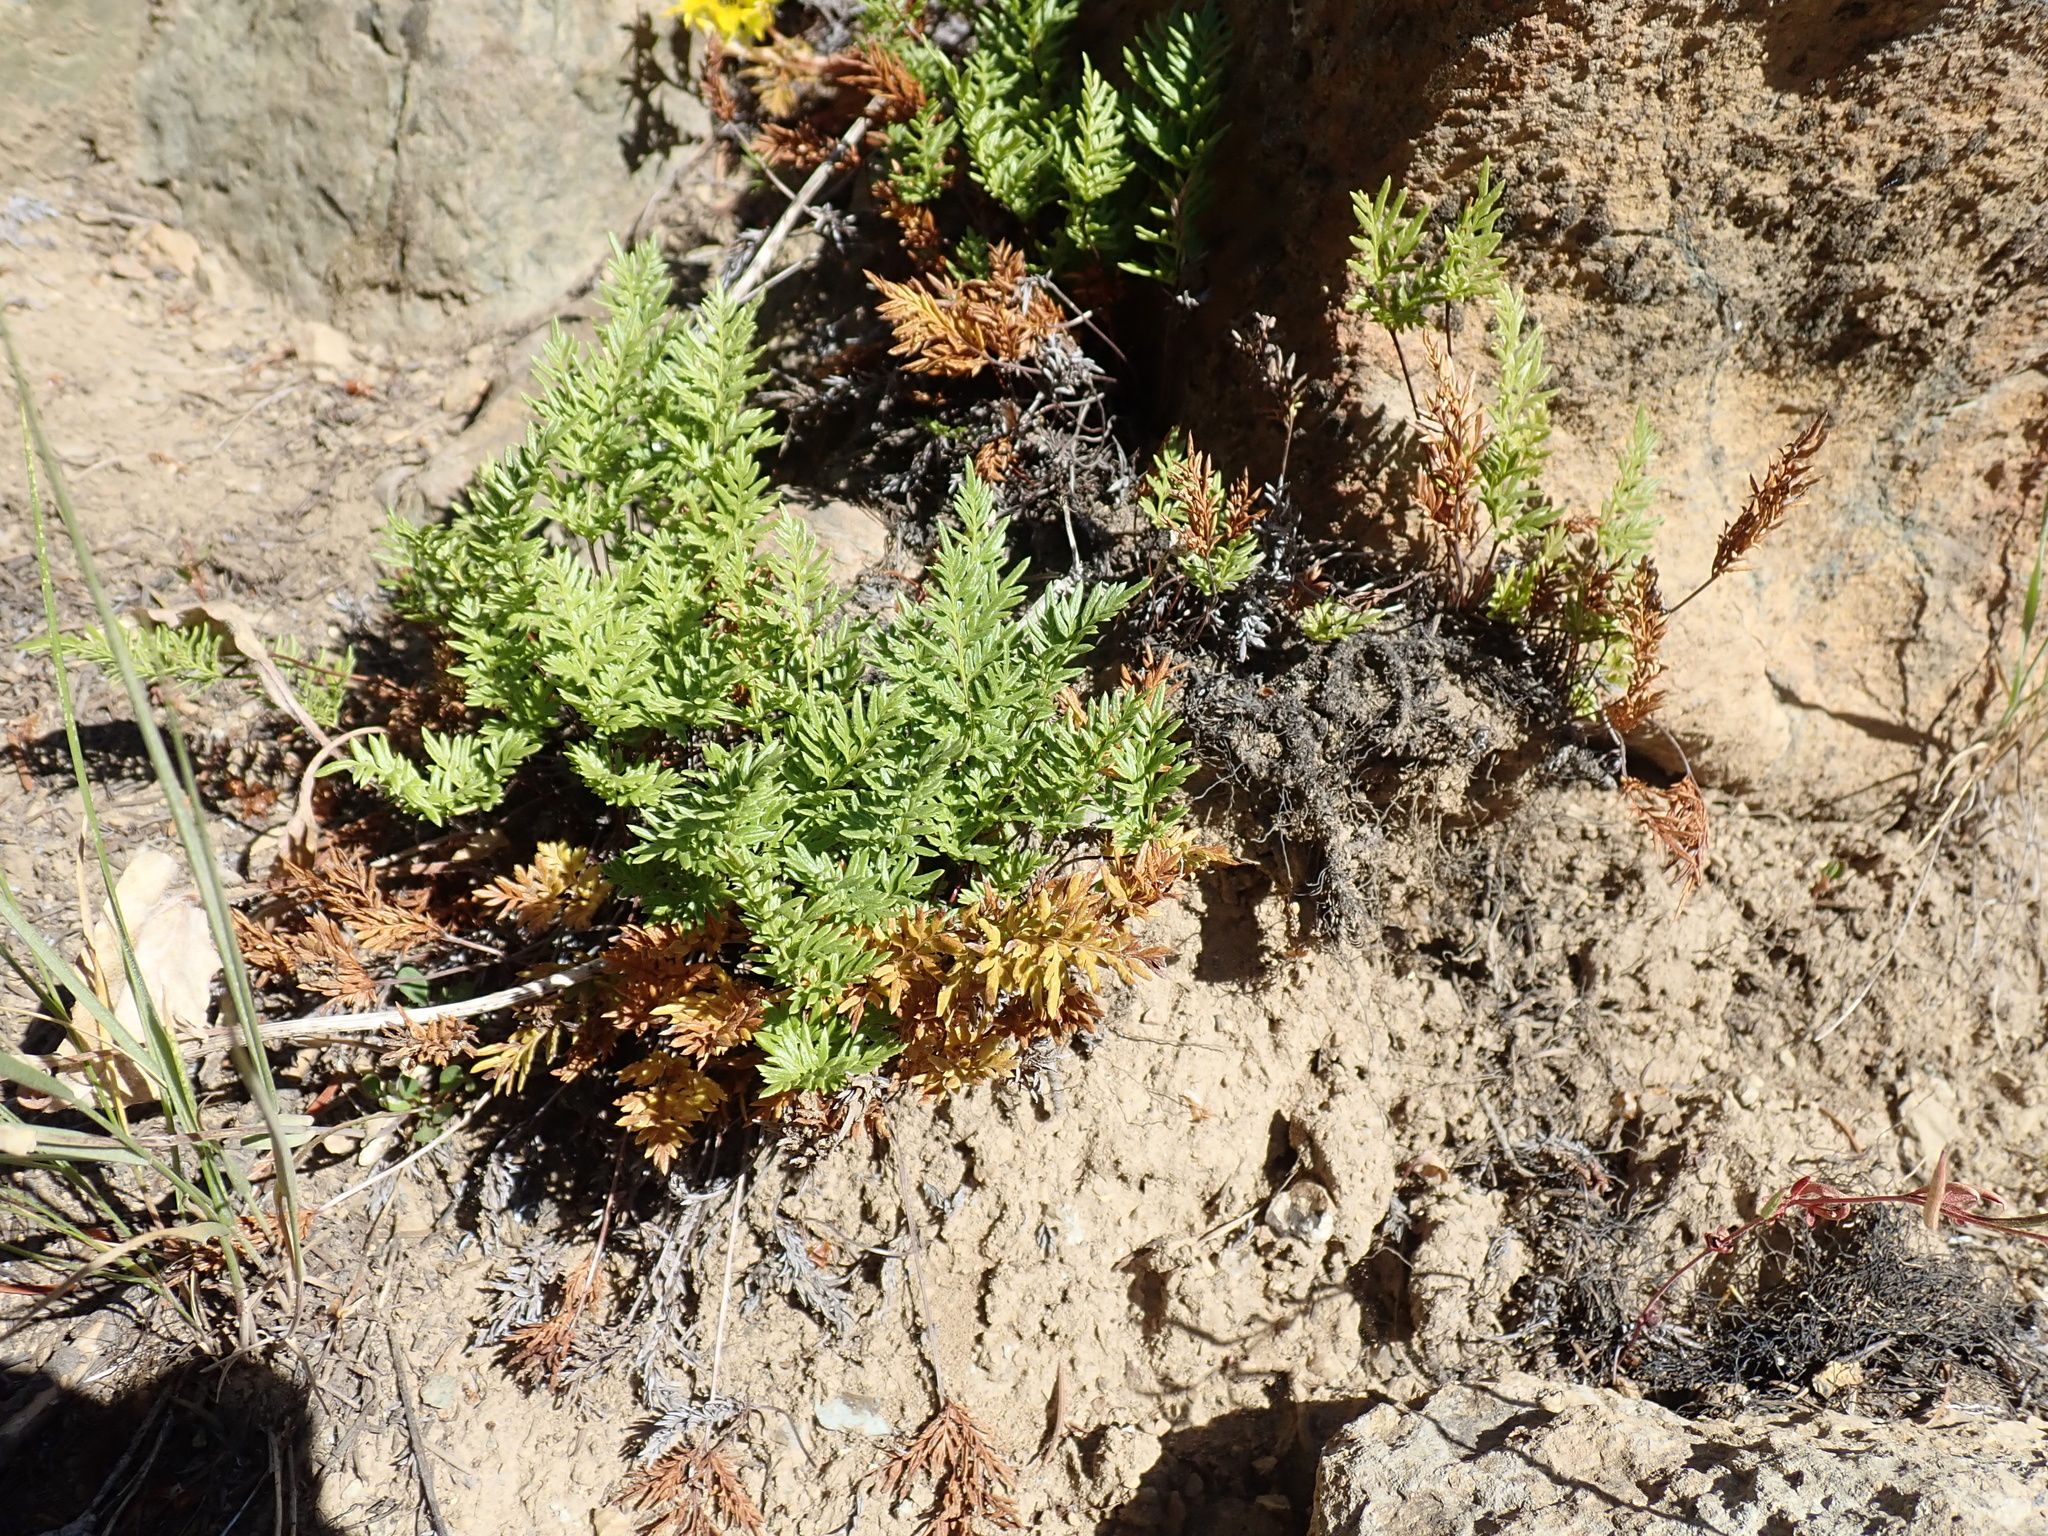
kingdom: Plantae
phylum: Tracheophyta
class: Polypodiopsida
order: Polypodiales
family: Pteridaceae
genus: Aspidotis
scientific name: Aspidotis densa
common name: Indian's dream
